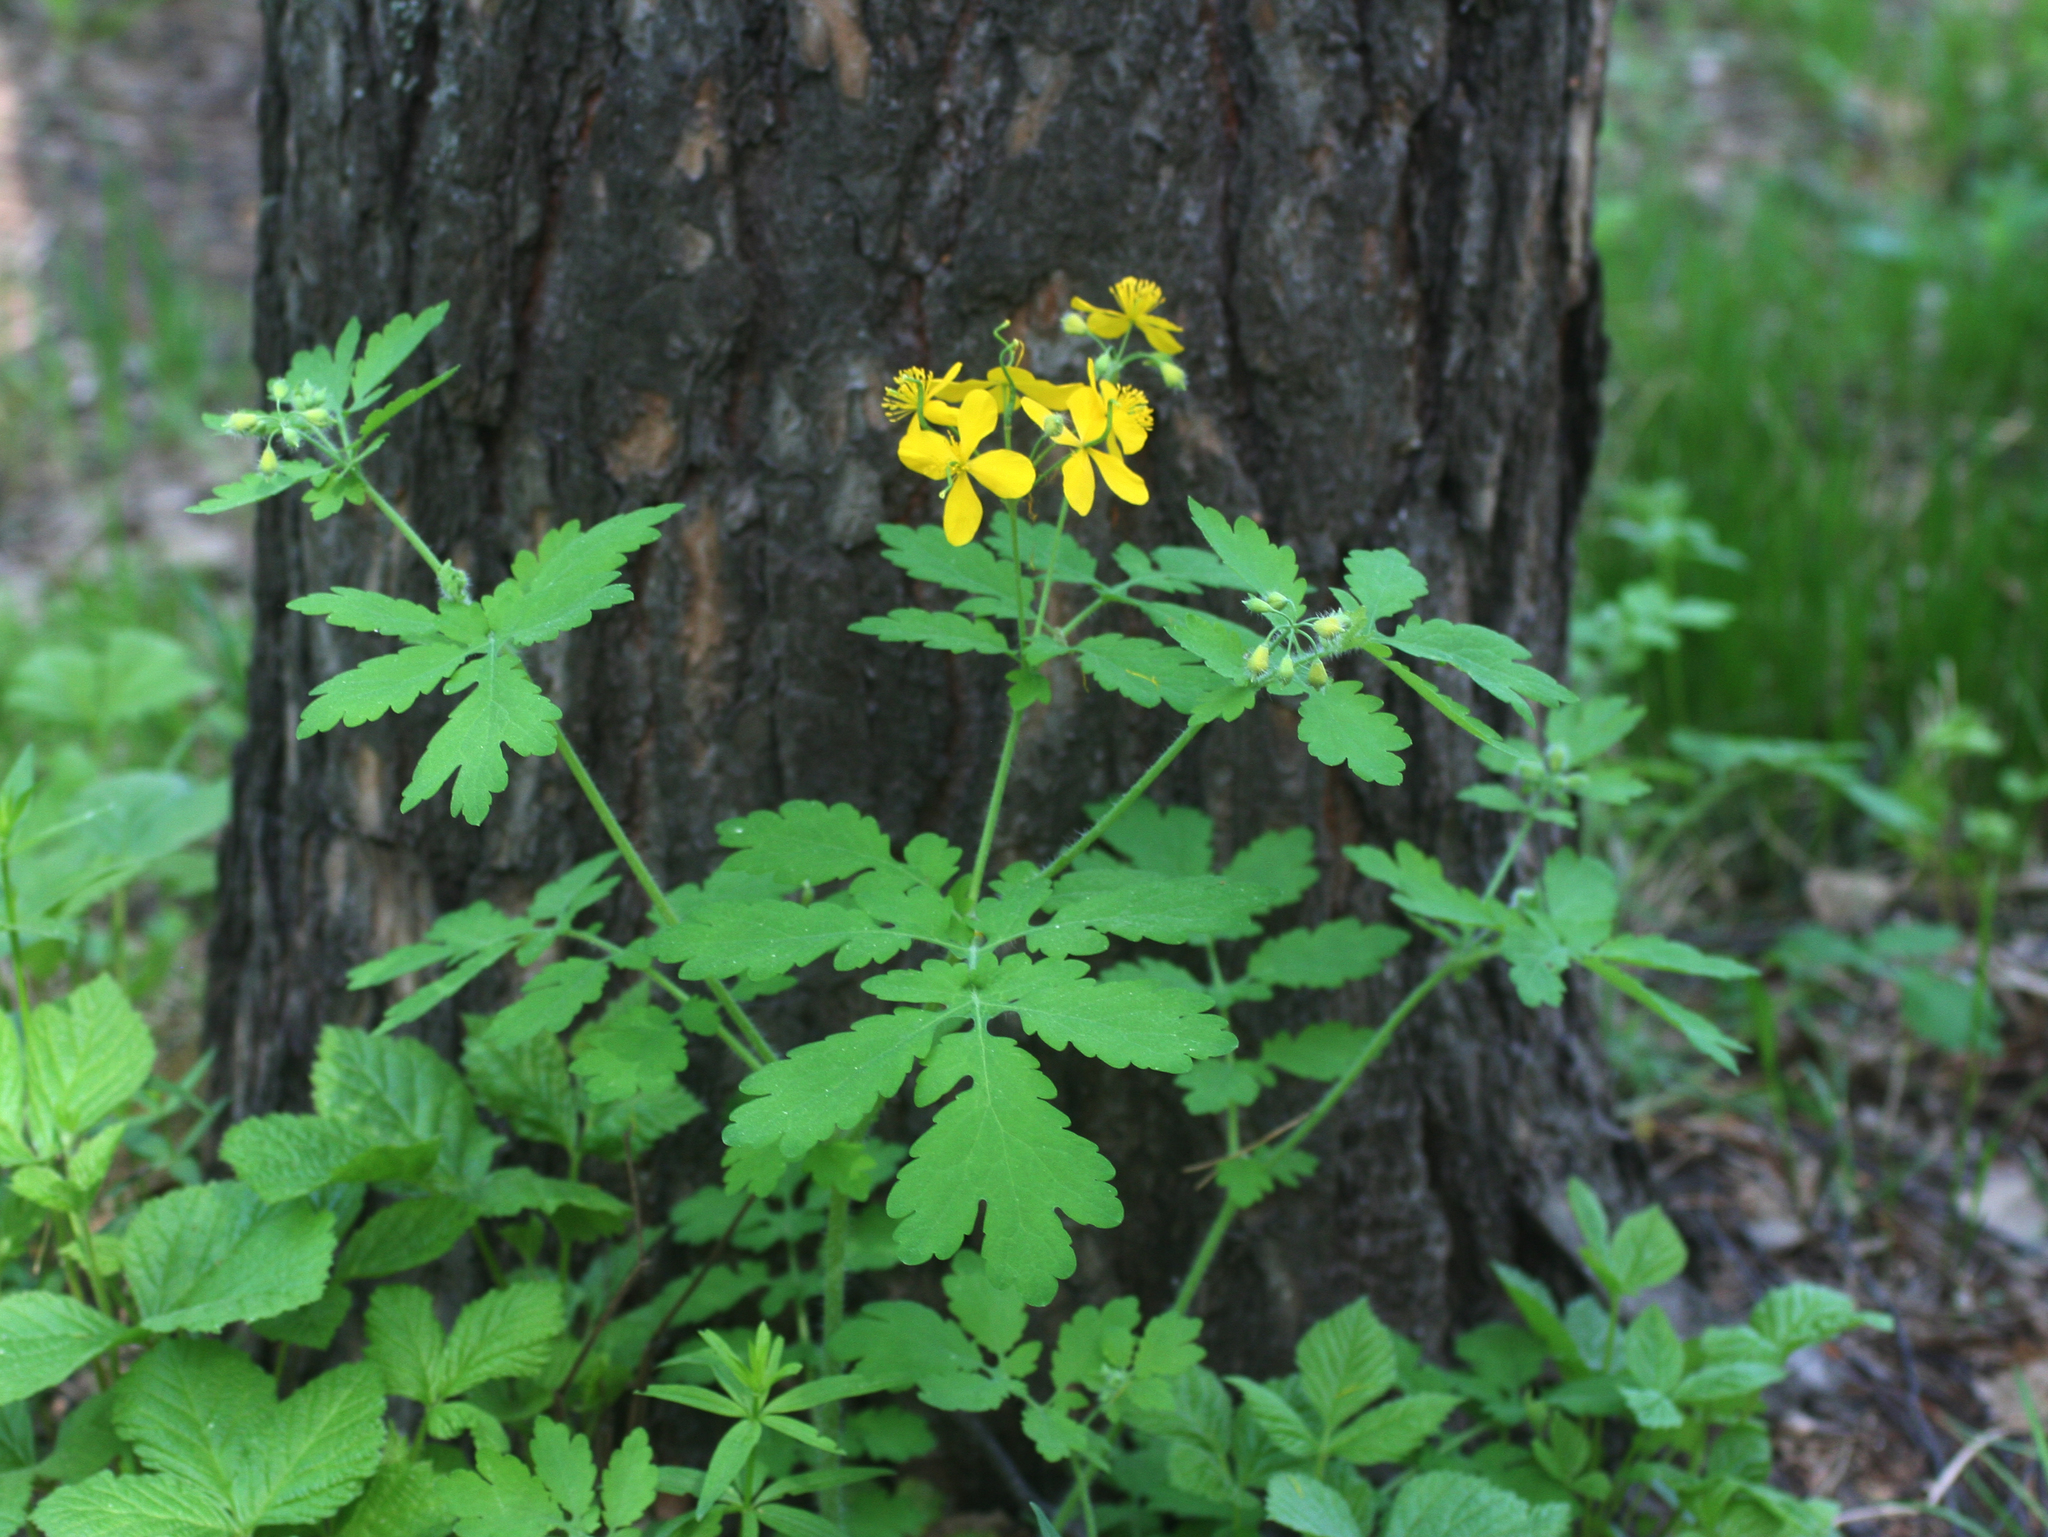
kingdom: Plantae
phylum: Tracheophyta
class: Magnoliopsida
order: Ranunculales
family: Papaveraceae
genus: Chelidonium
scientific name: Chelidonium majus
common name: Greater celandine
